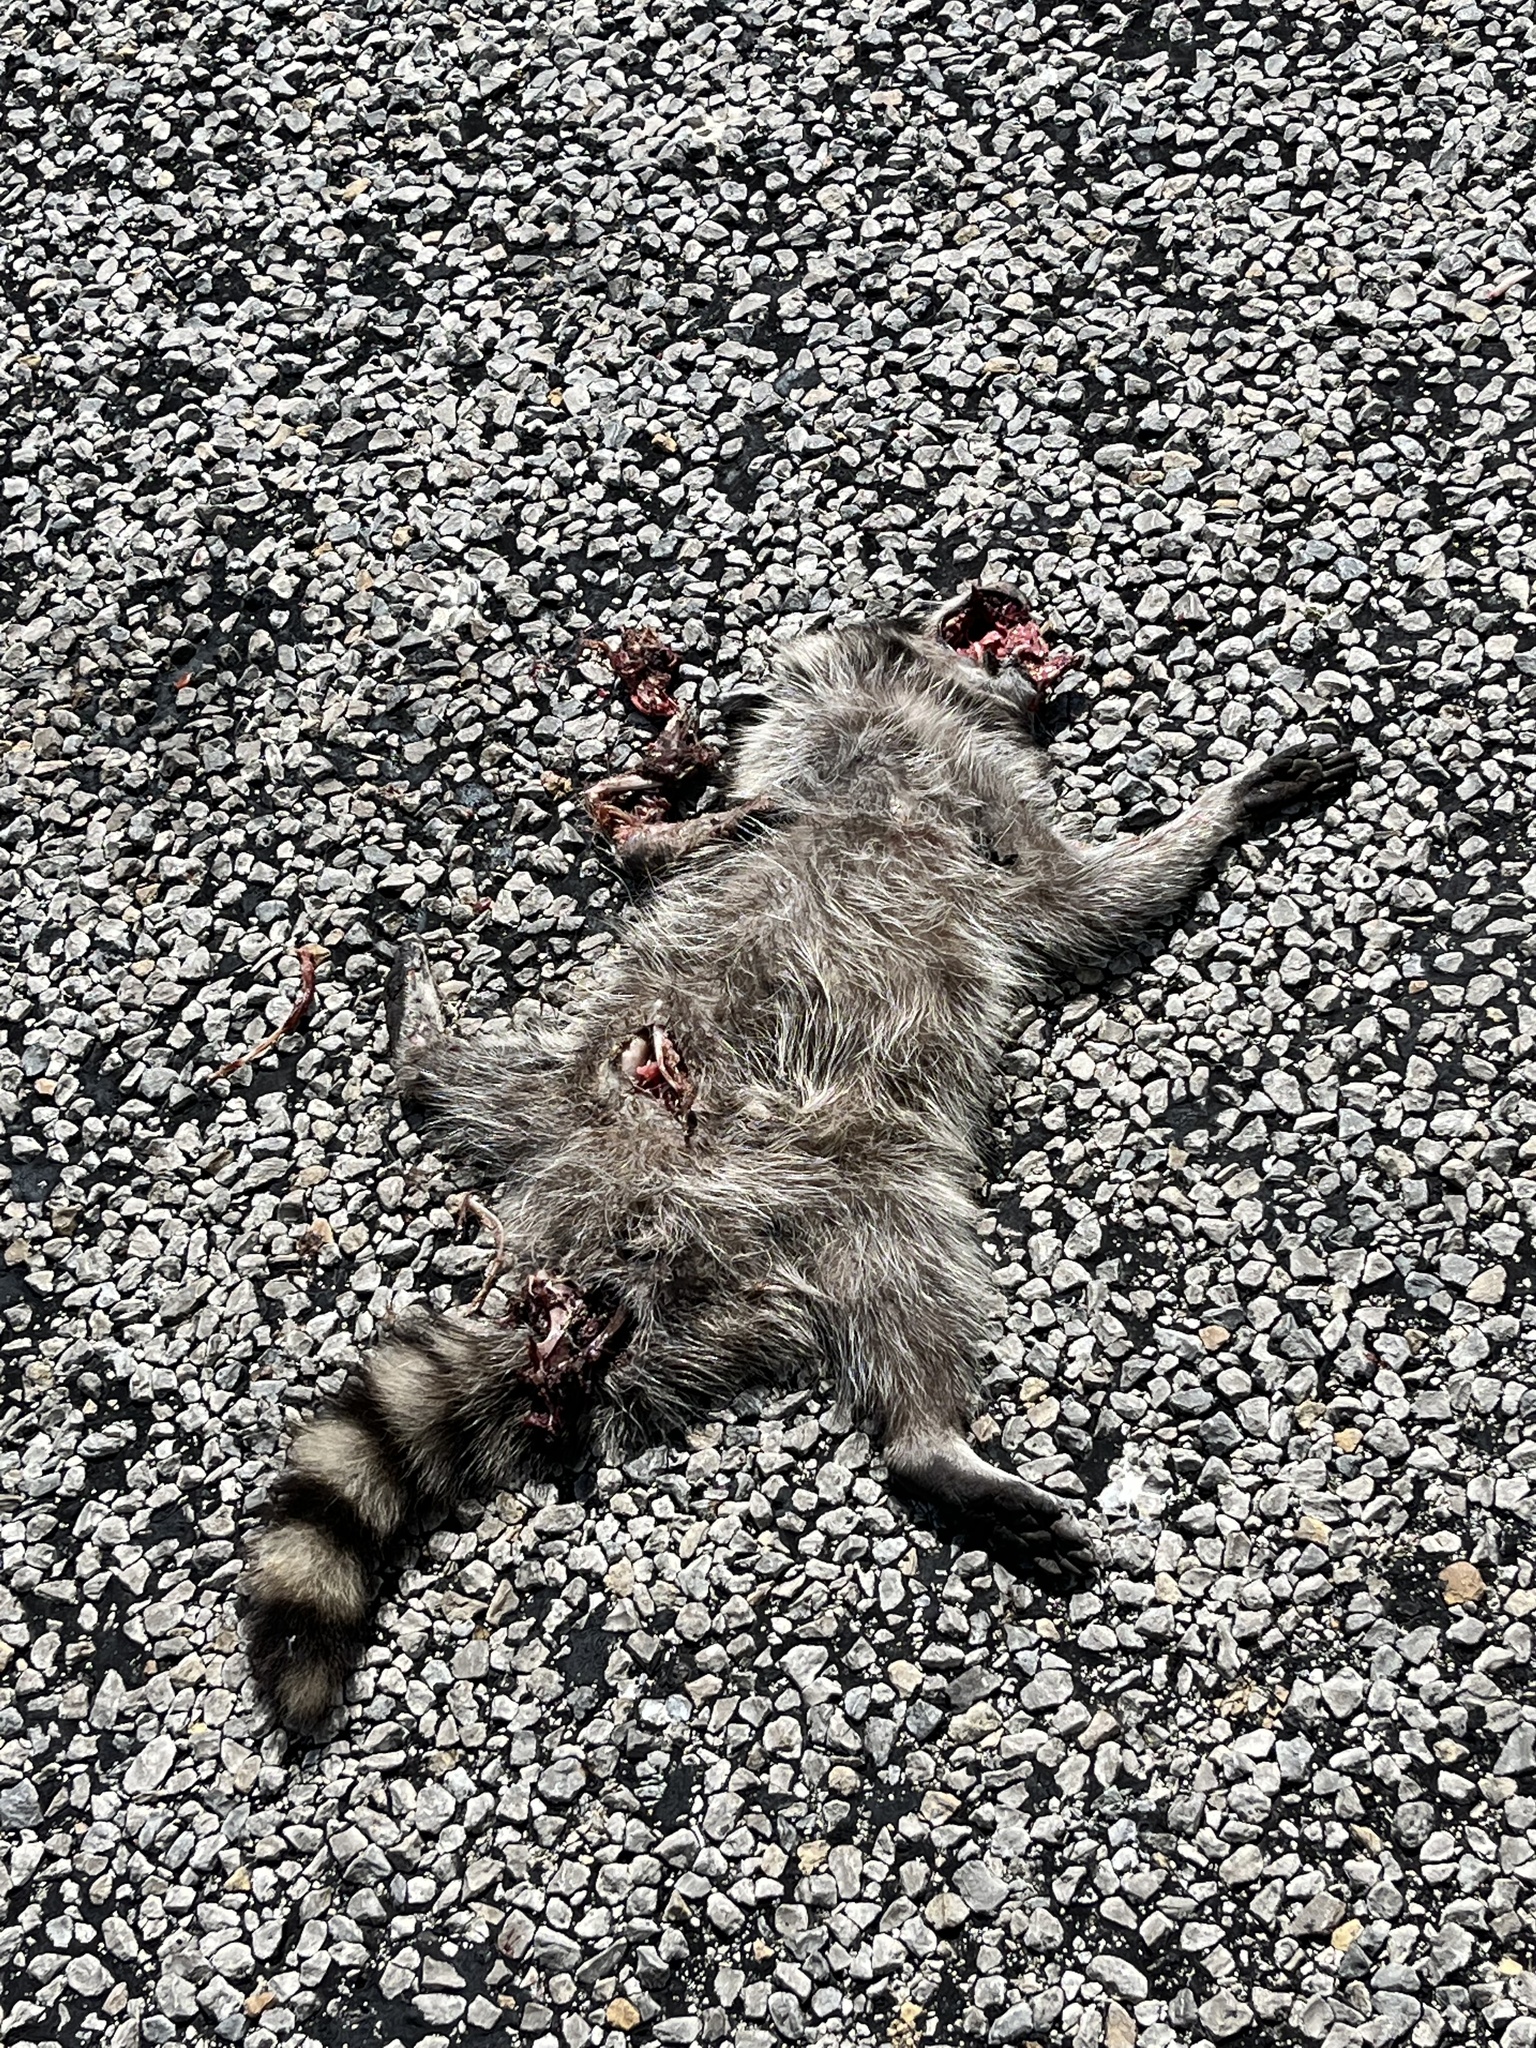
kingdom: Animalia
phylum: Chordata
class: Mammalia
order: Carnivora
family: Procyonidae
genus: Procyon
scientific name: Procyon lotor
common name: Raccoon
